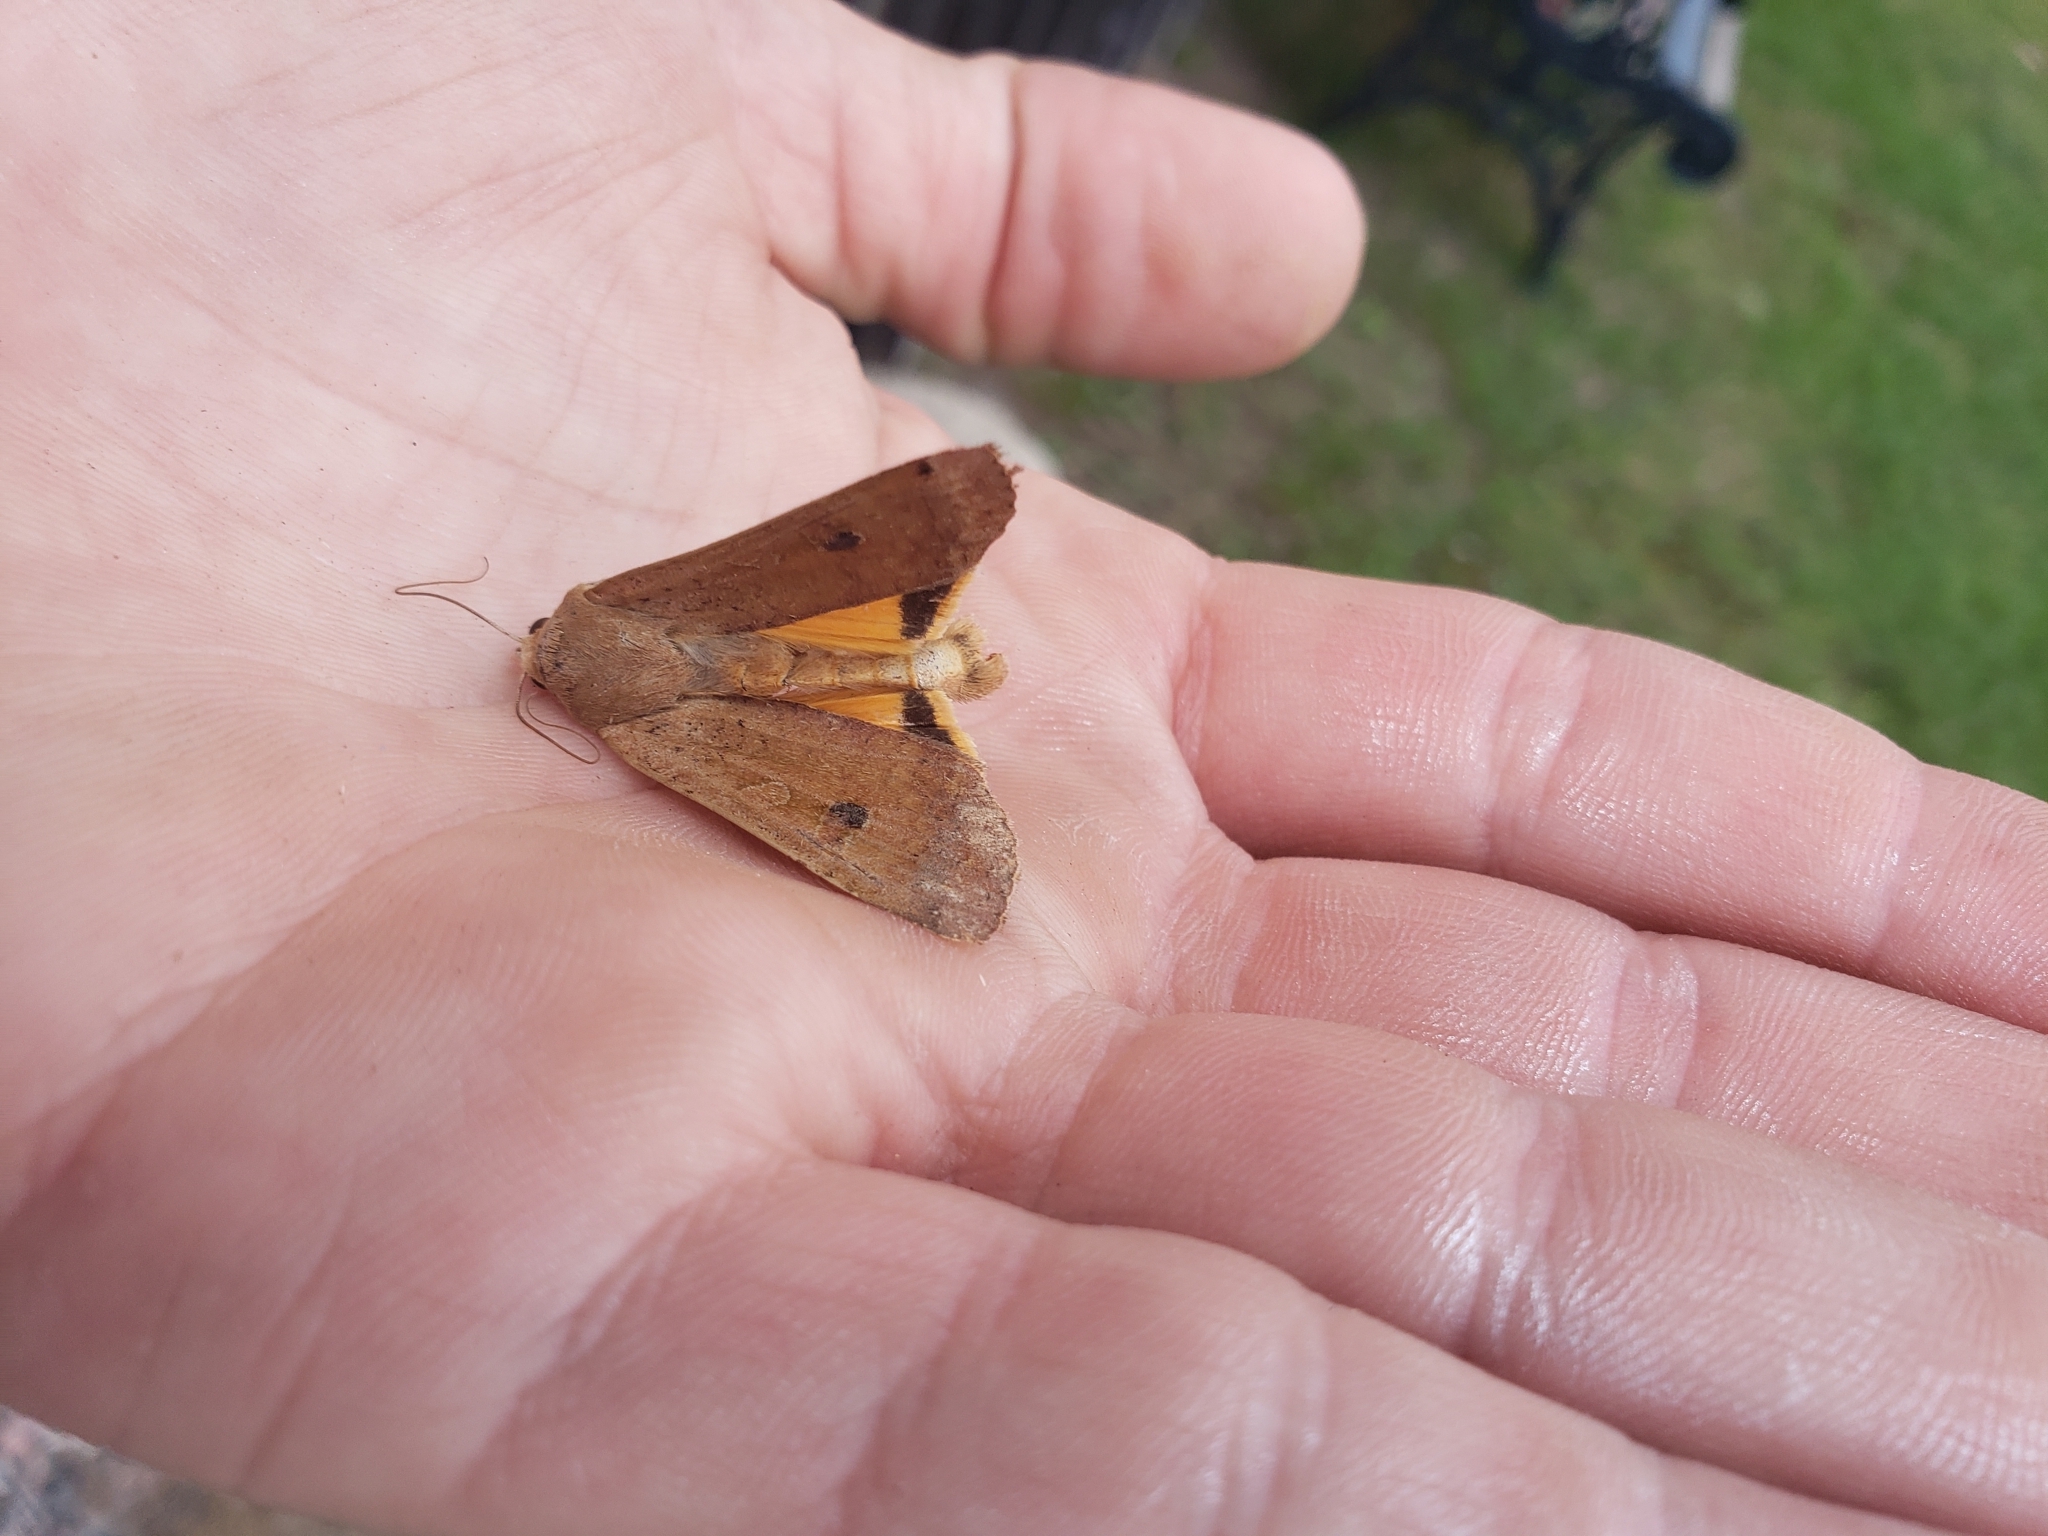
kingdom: Animalia
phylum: Arthropoda
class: Insecta
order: Lepidoptera
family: Noctuidae
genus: Noctua
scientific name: Noctua pronuba
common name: Large yellow underwing
